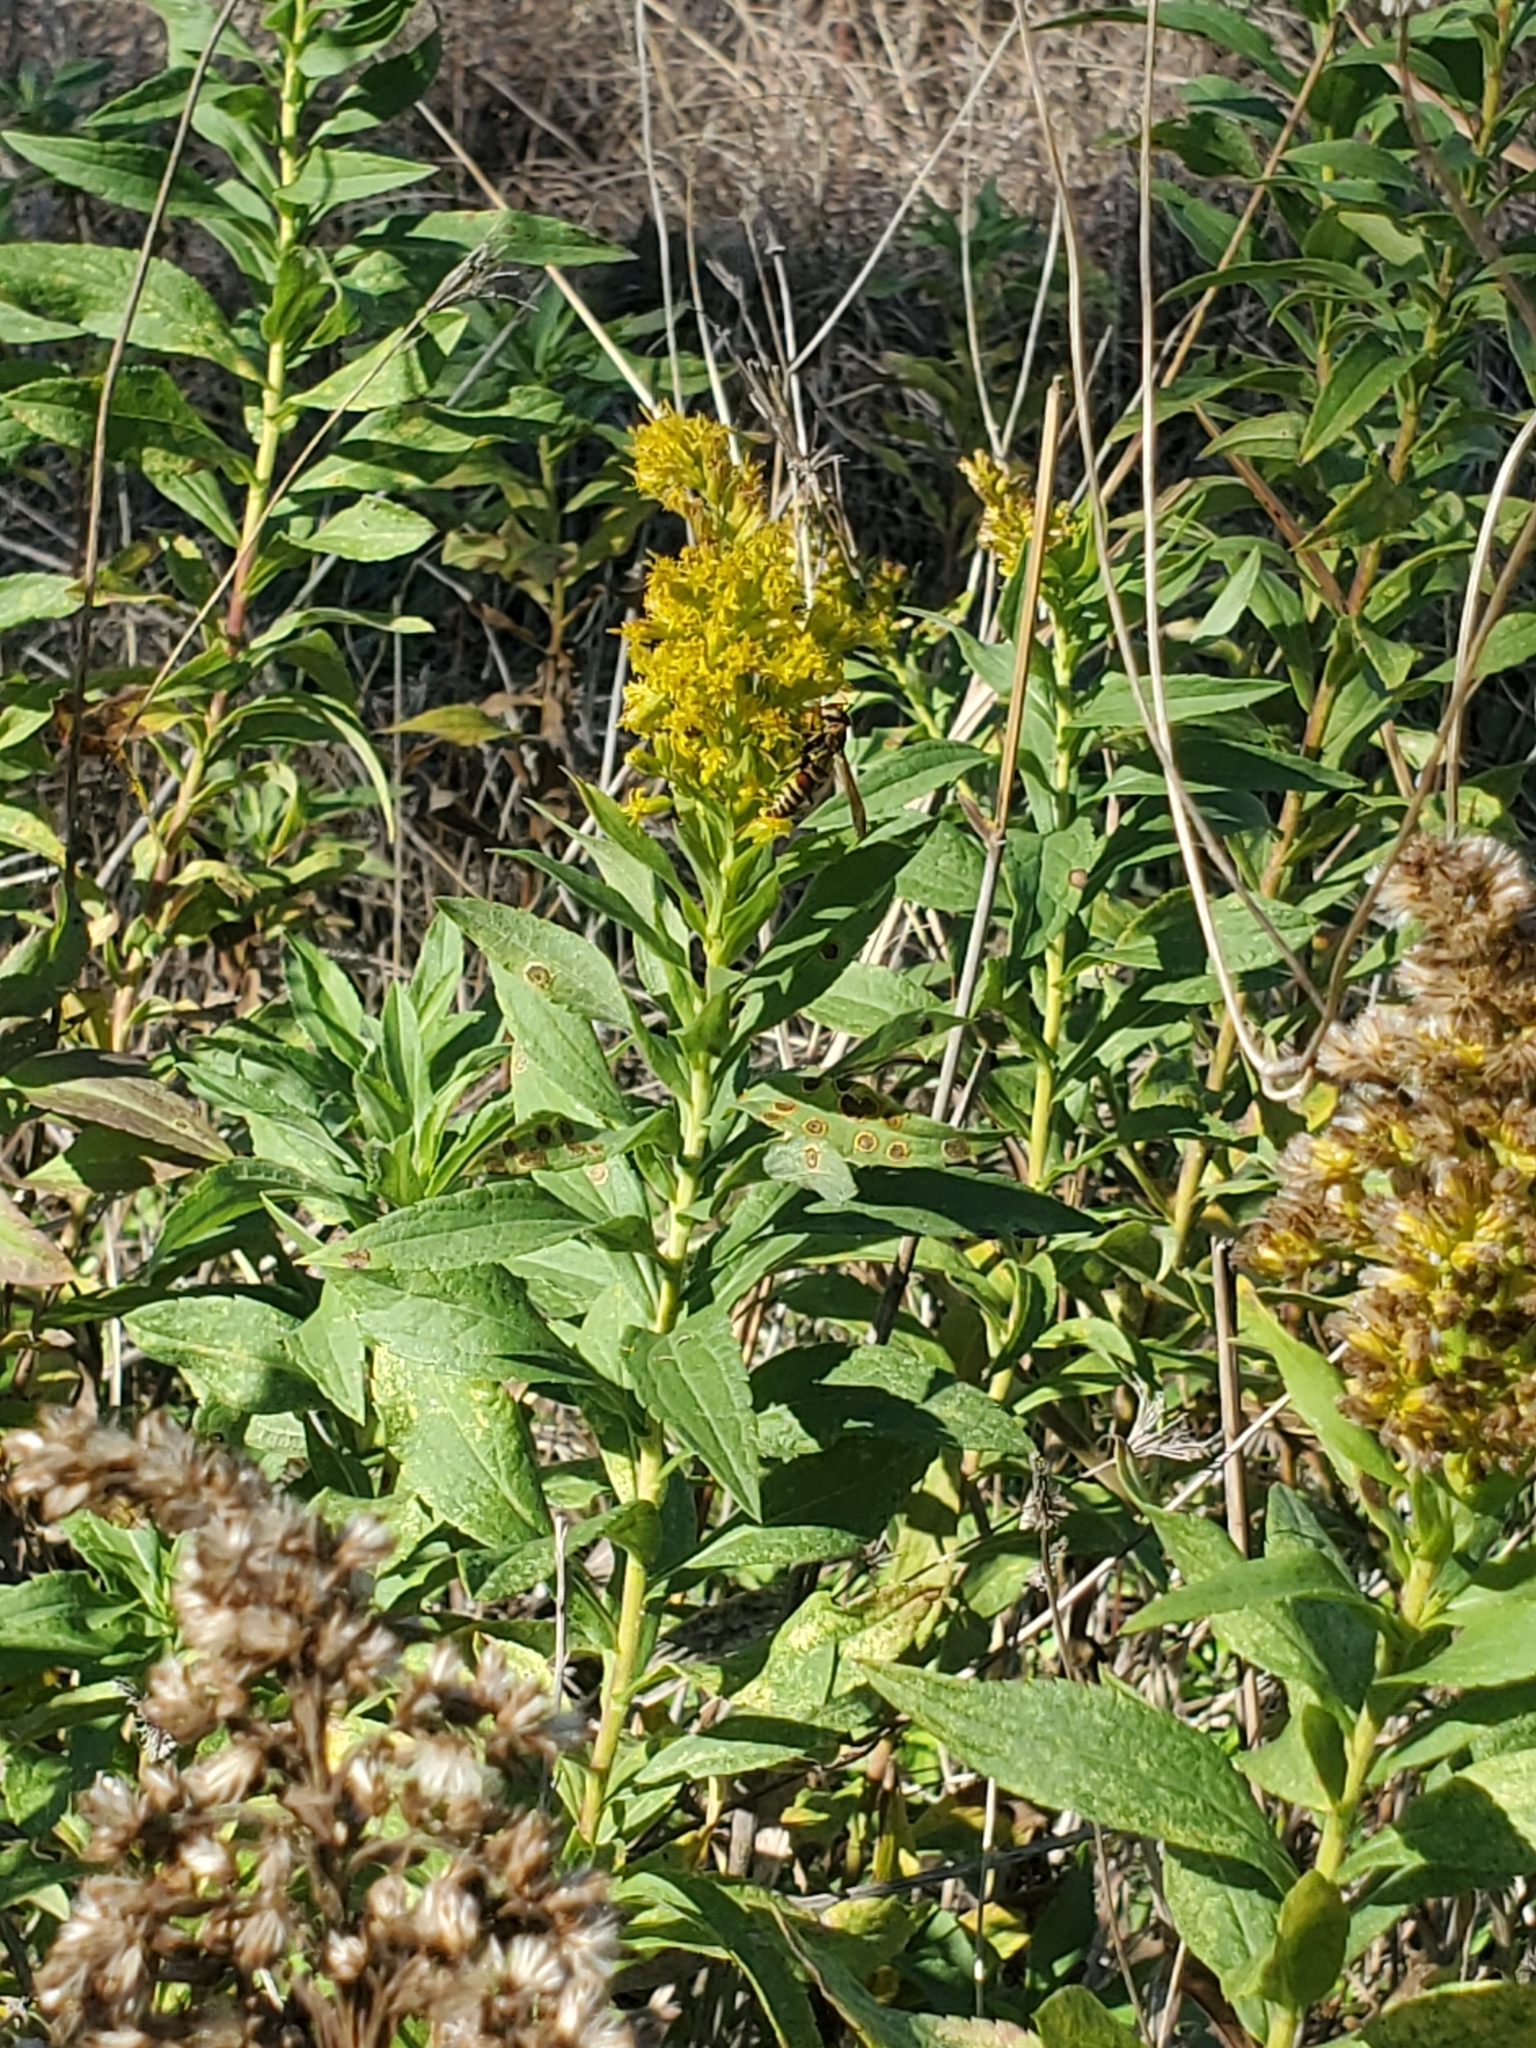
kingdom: Plantae
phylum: Tracheophyta
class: Magnoliopsida
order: Asterales
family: Asteraceae
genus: Solidago
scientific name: Solidago altissima
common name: Late goldenrod
